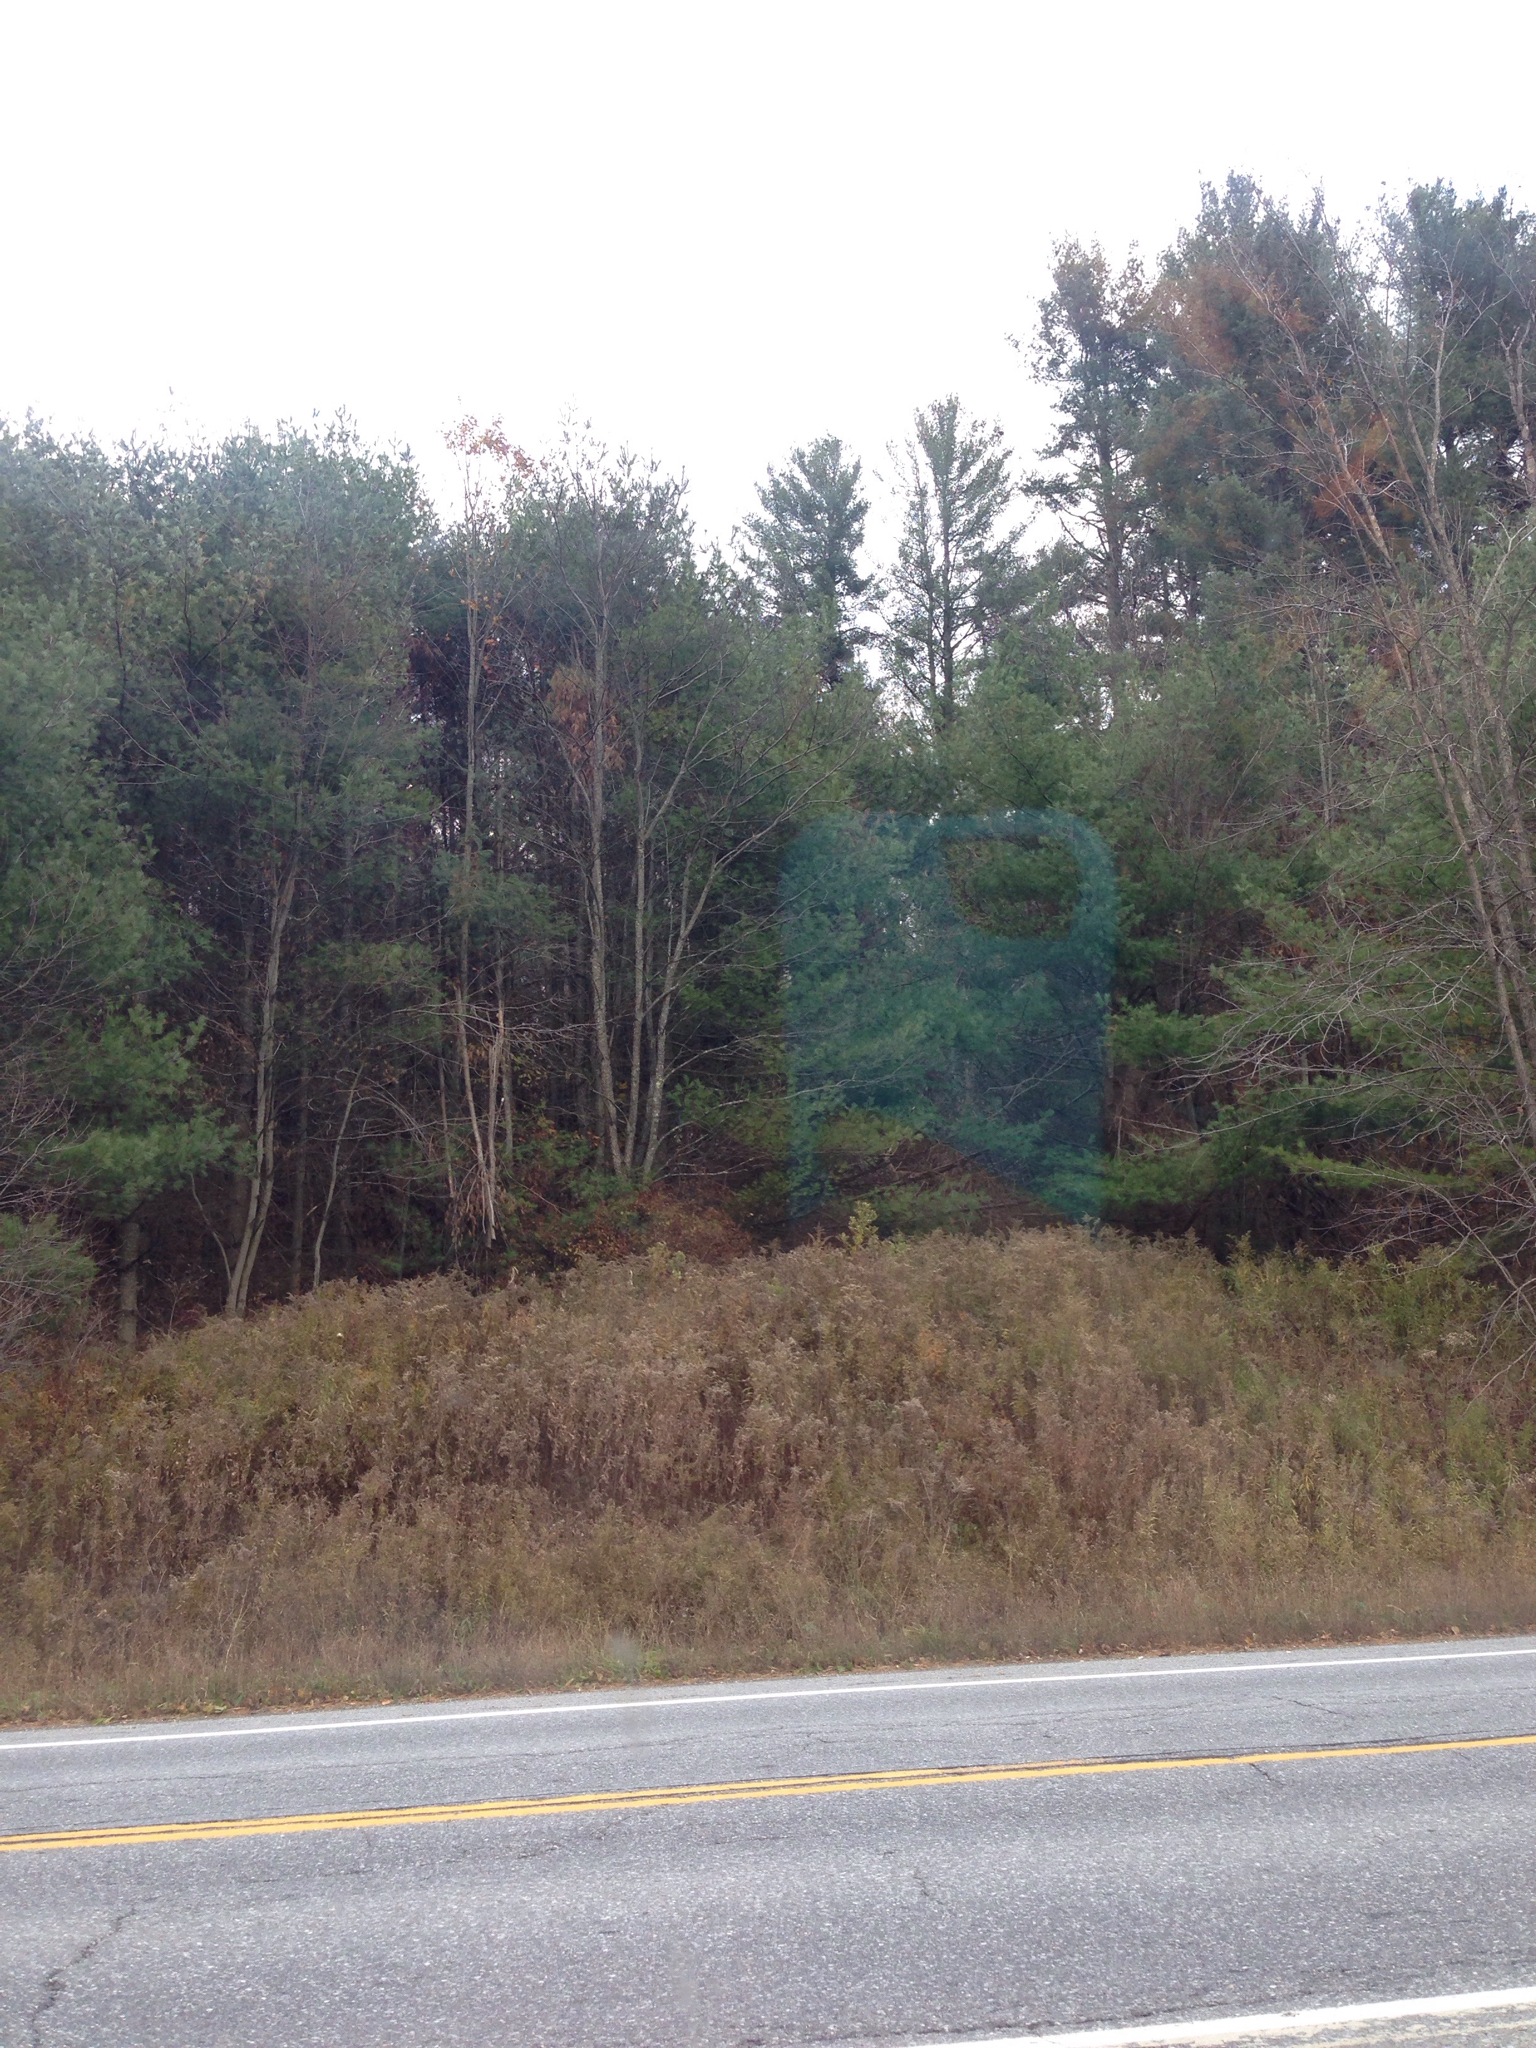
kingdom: Plantae
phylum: Tracheophyta
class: Pinopsida
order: Pinales
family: Pinaceae
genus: Pinus
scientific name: Pinus strobus
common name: Weymouth pine
